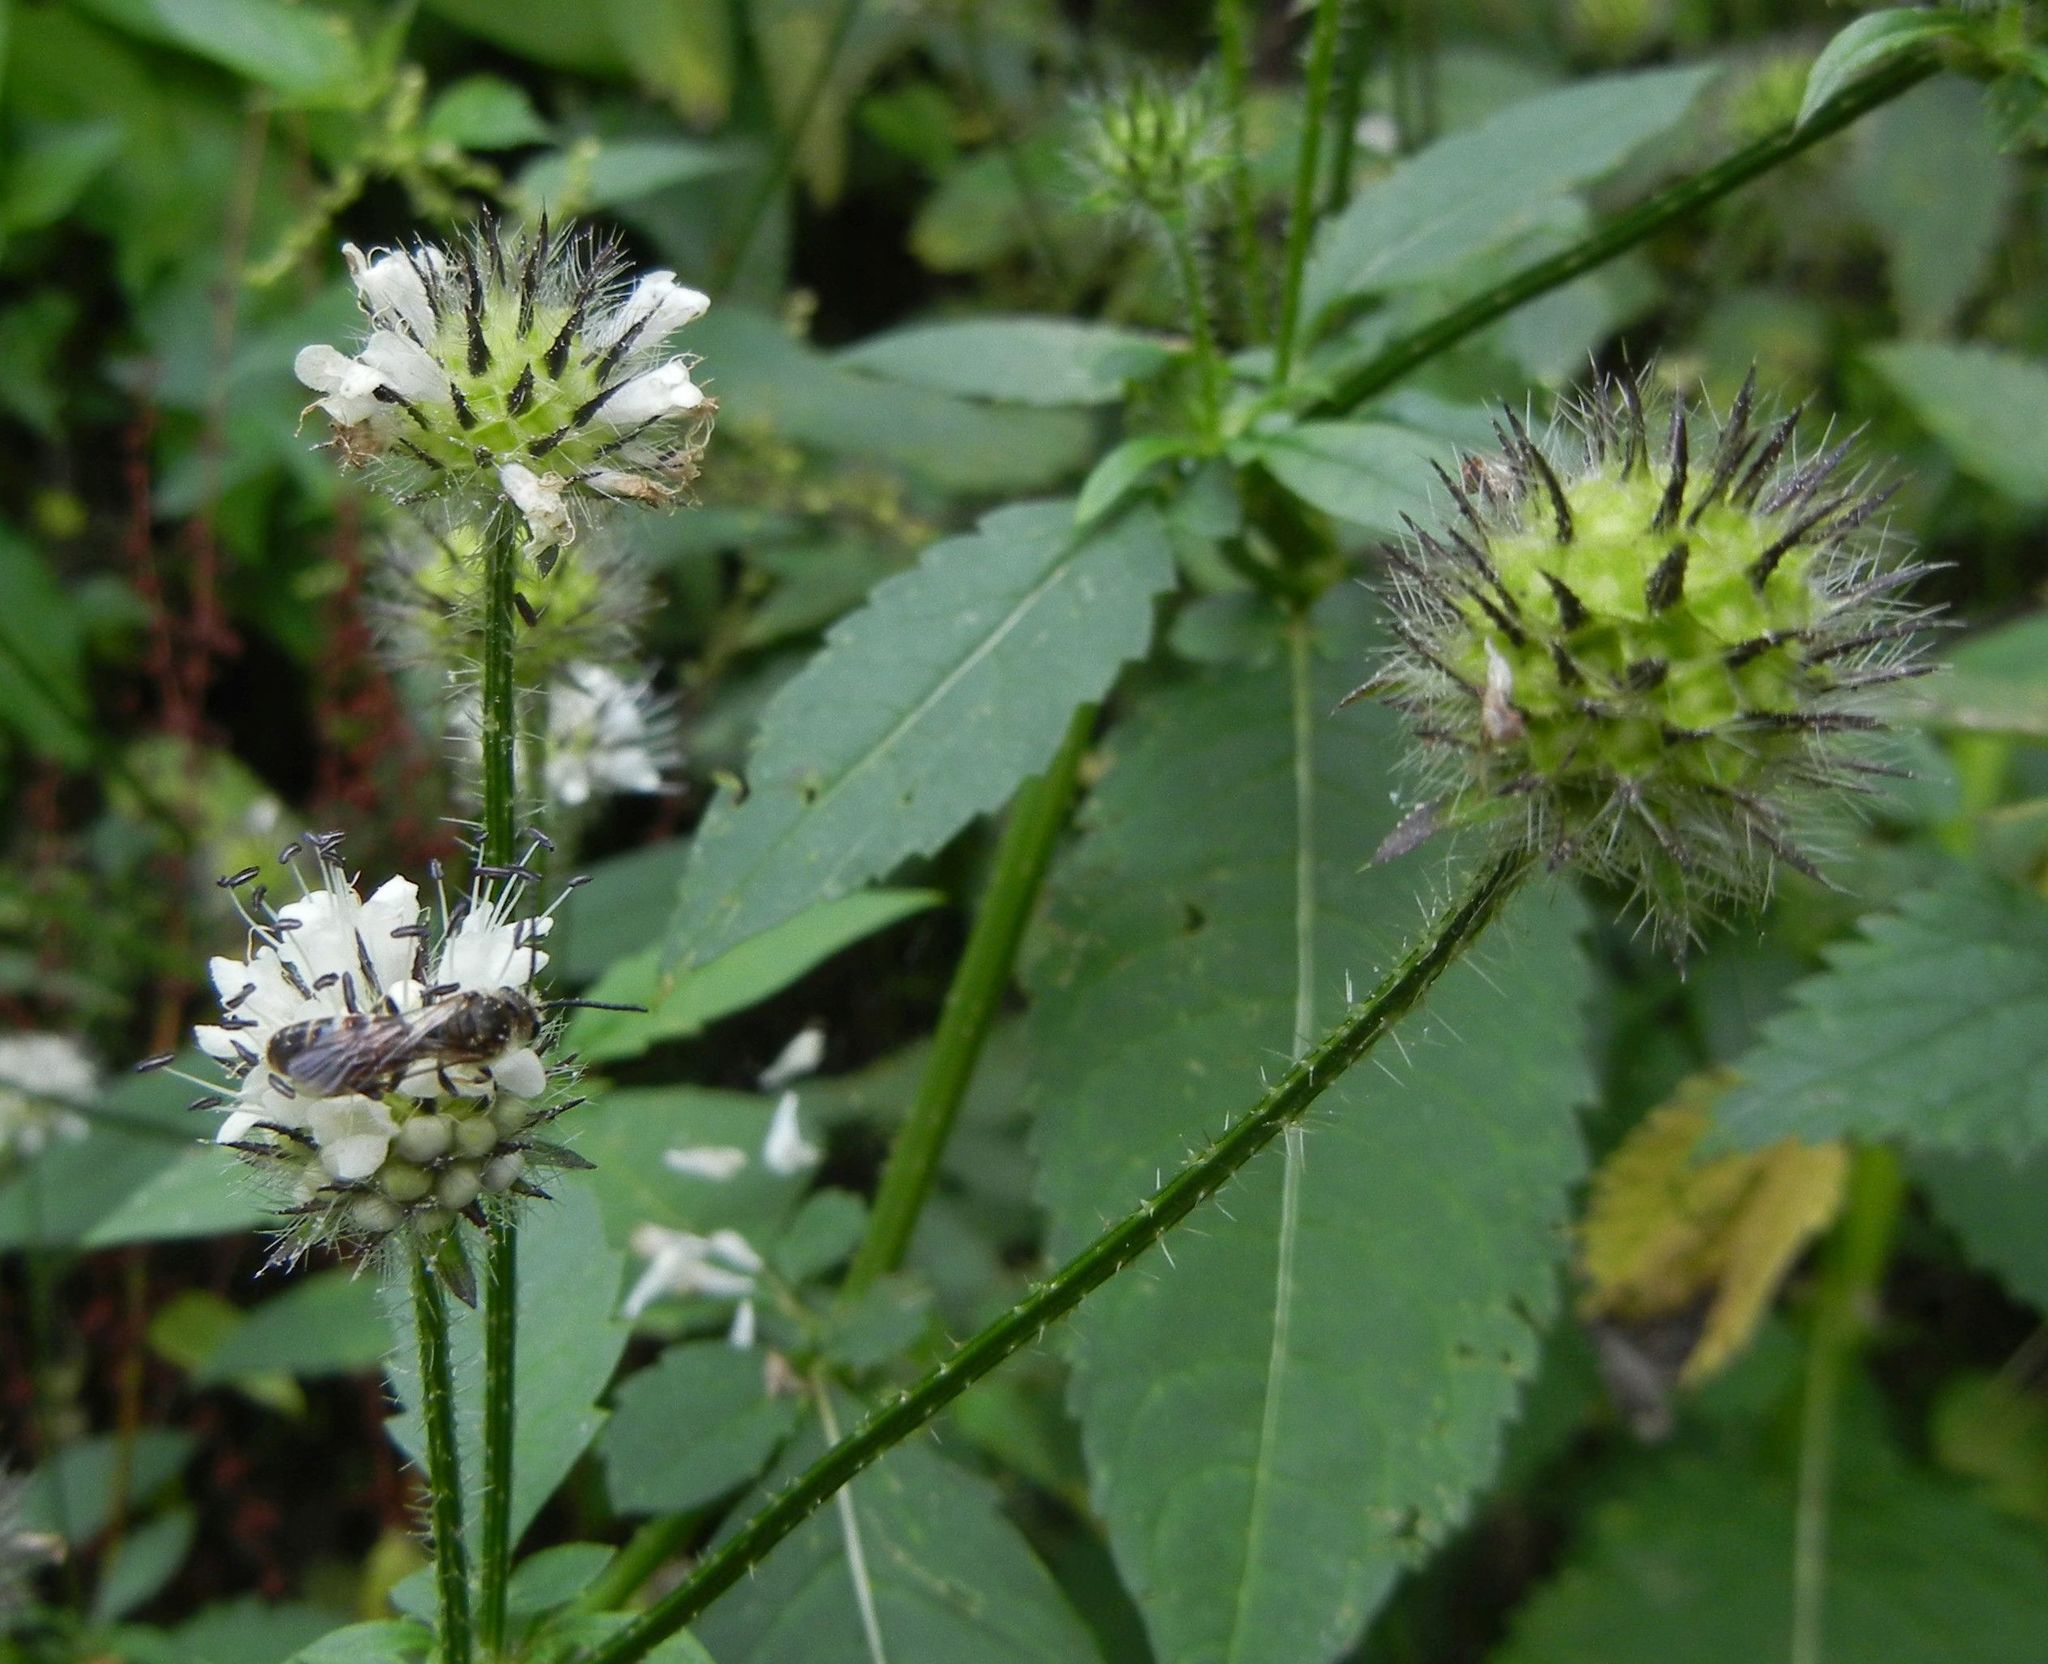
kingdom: Plantae
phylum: Tracheophyta
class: Magnoliopsida
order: Dipsacales
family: Caprifoliaceae
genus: Dipsacus
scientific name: Dipsacus pilosus
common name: Small teasel
